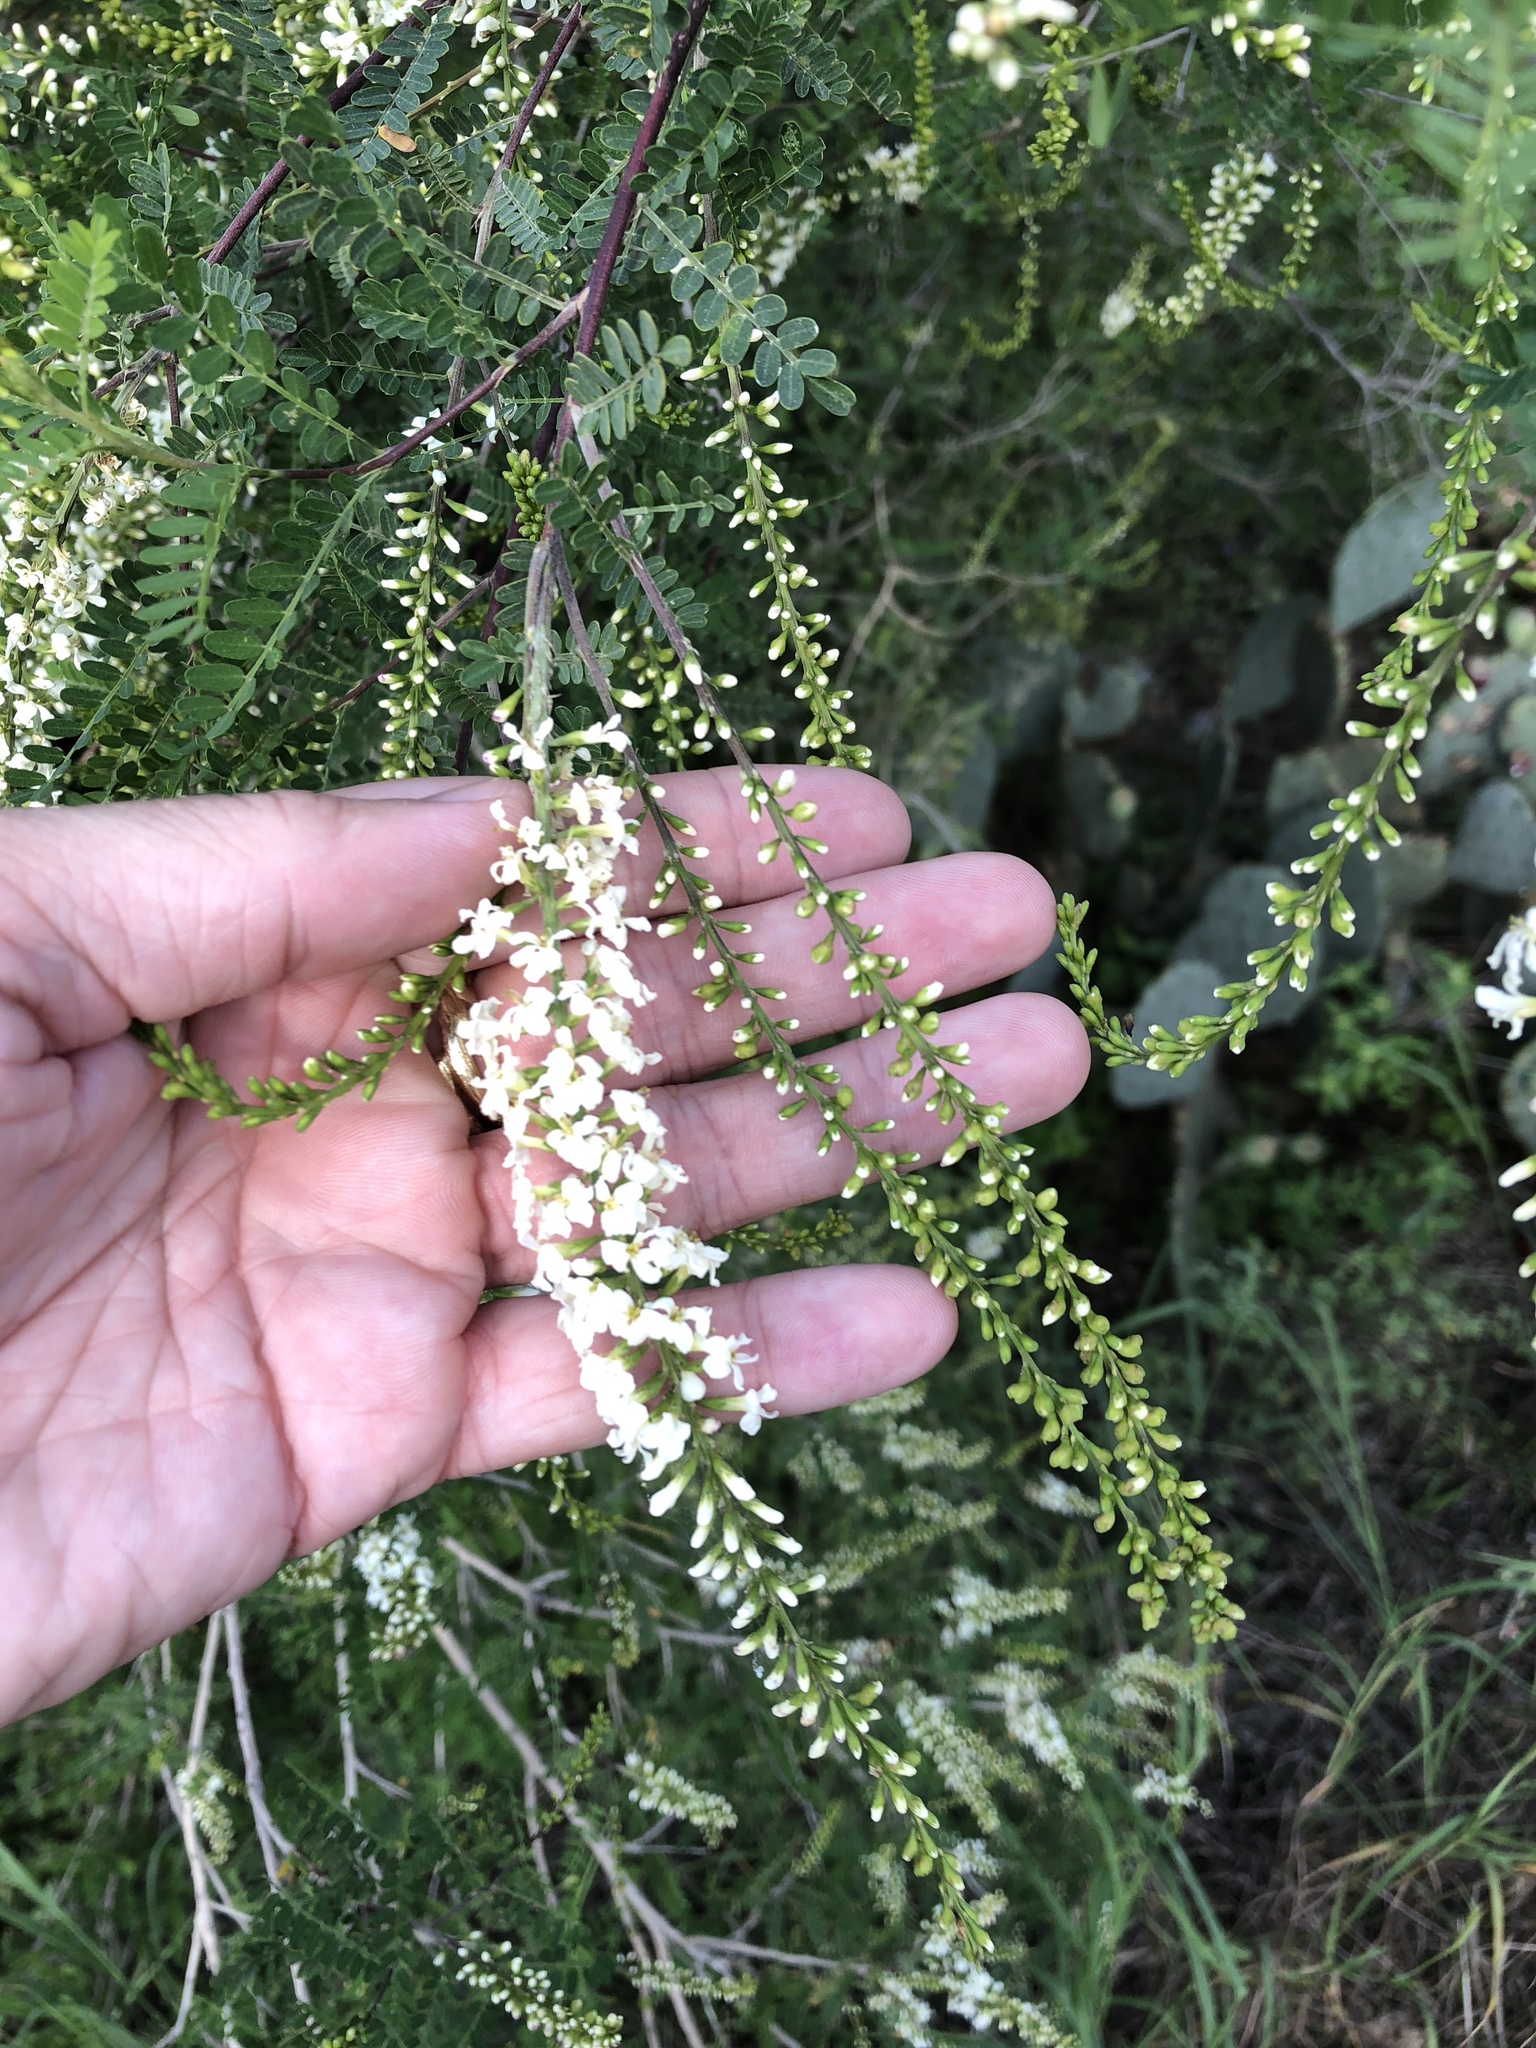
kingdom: Plantae
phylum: Tracheophyta
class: Magnoliopsida
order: Fabales
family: Fabaceae
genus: Eysenhardtia
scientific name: Eysenhardtia texana
